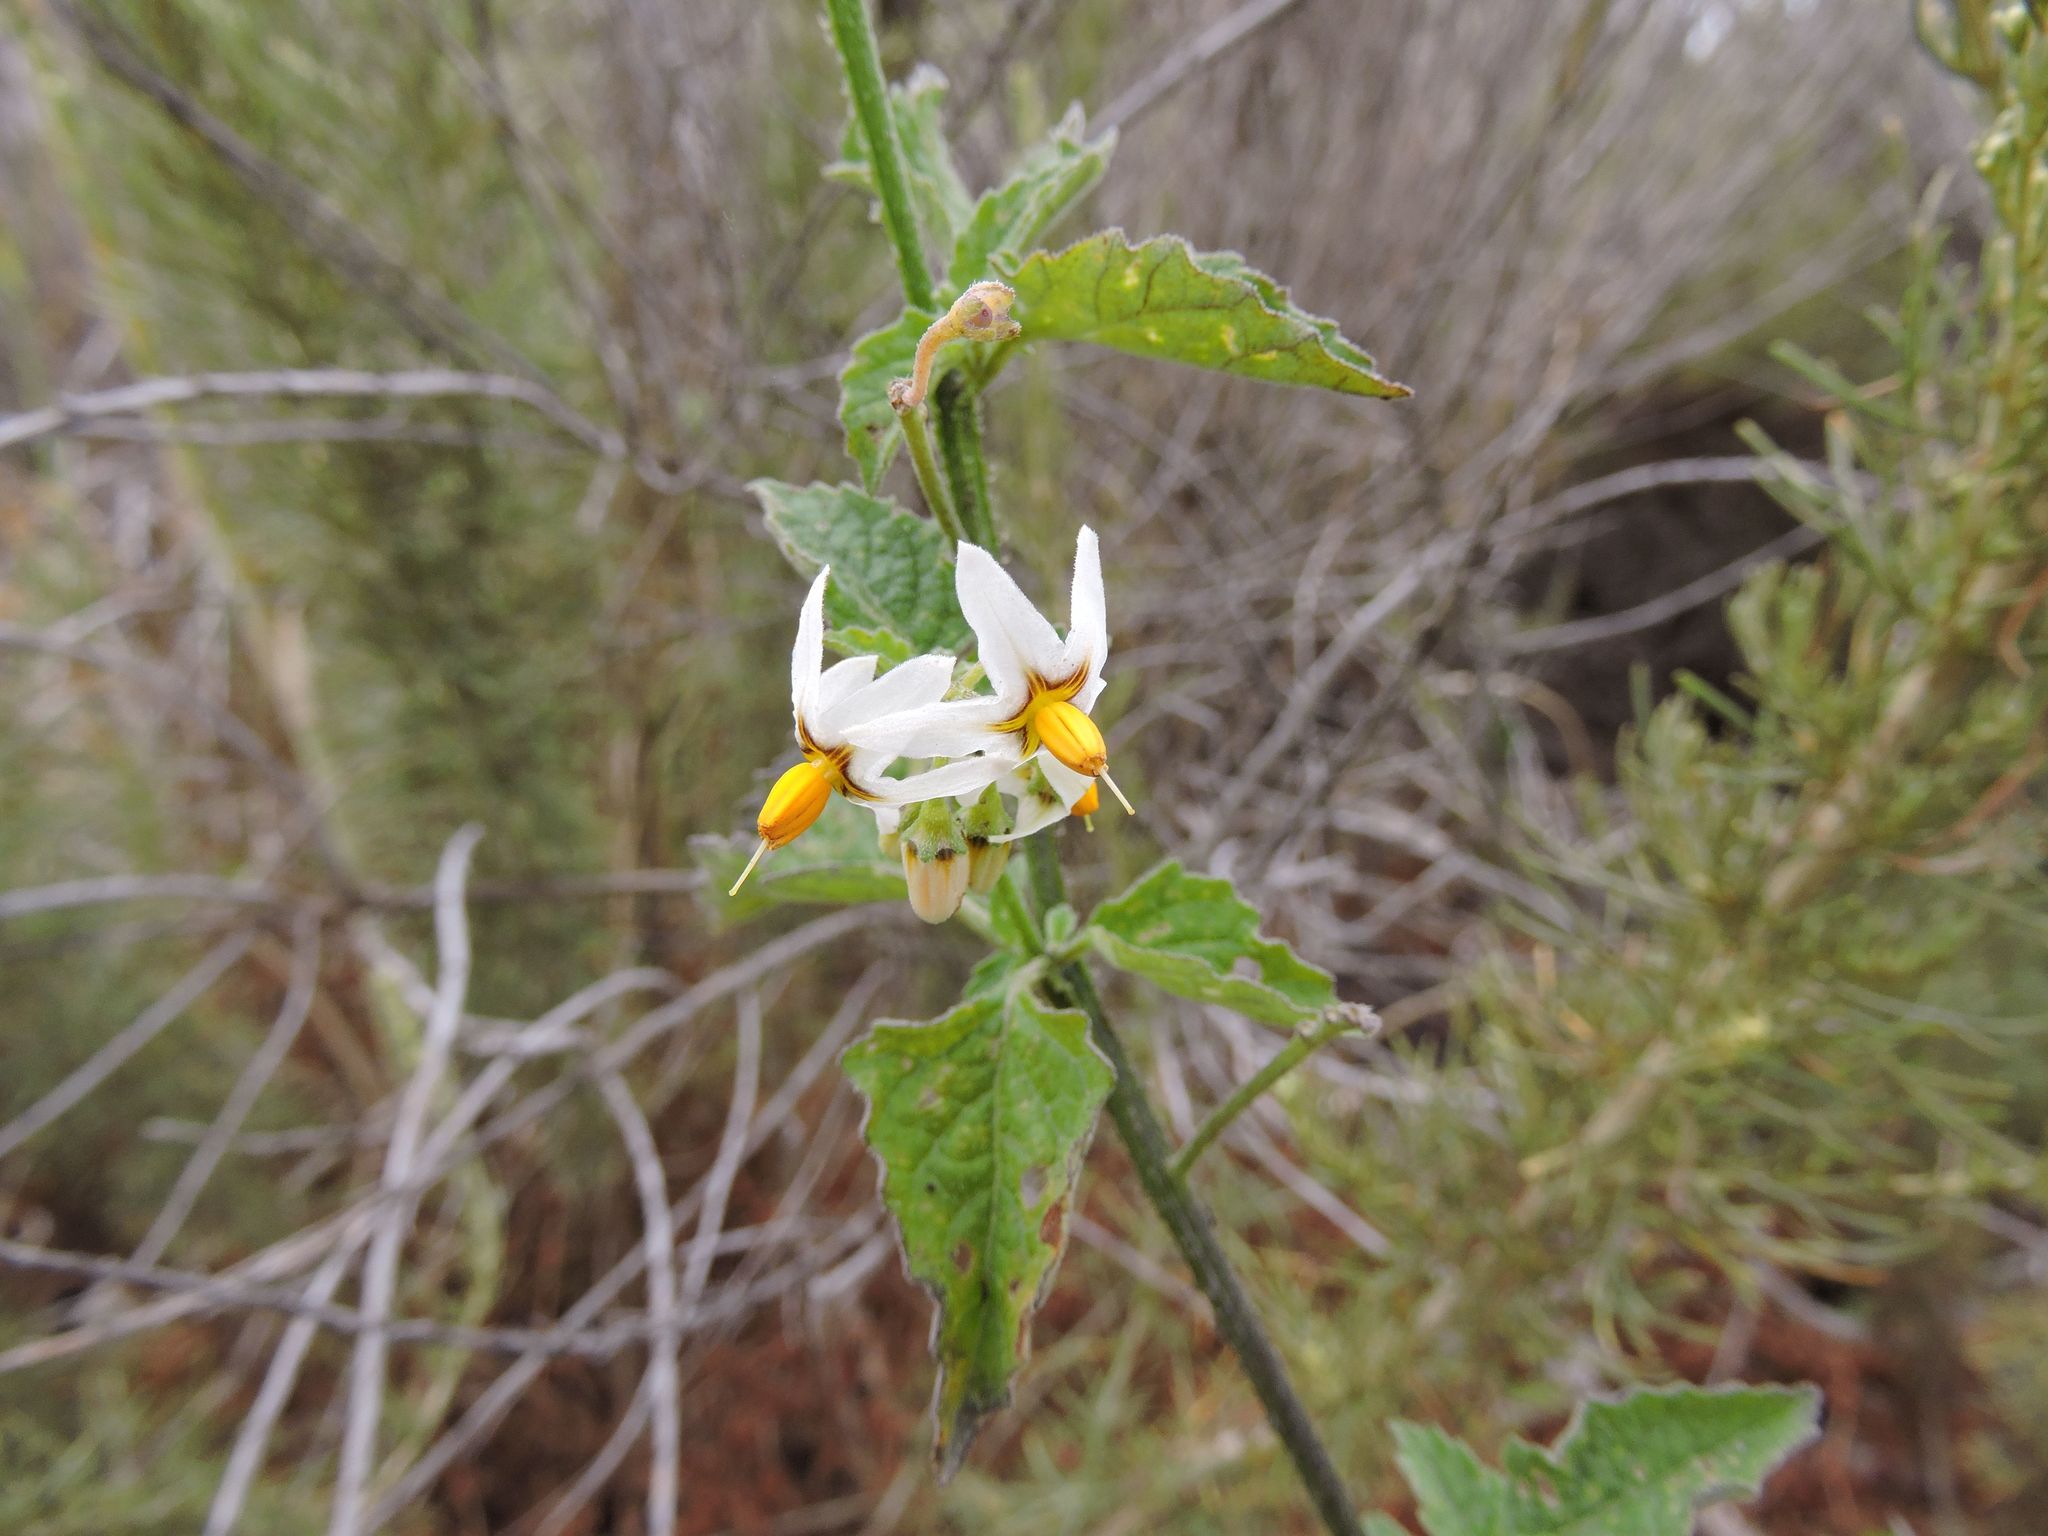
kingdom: Plantae
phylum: Tracheophyta
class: Magnoliopsida
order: Solanales
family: Solanaceae
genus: Solanum
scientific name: Solanum douglasii
